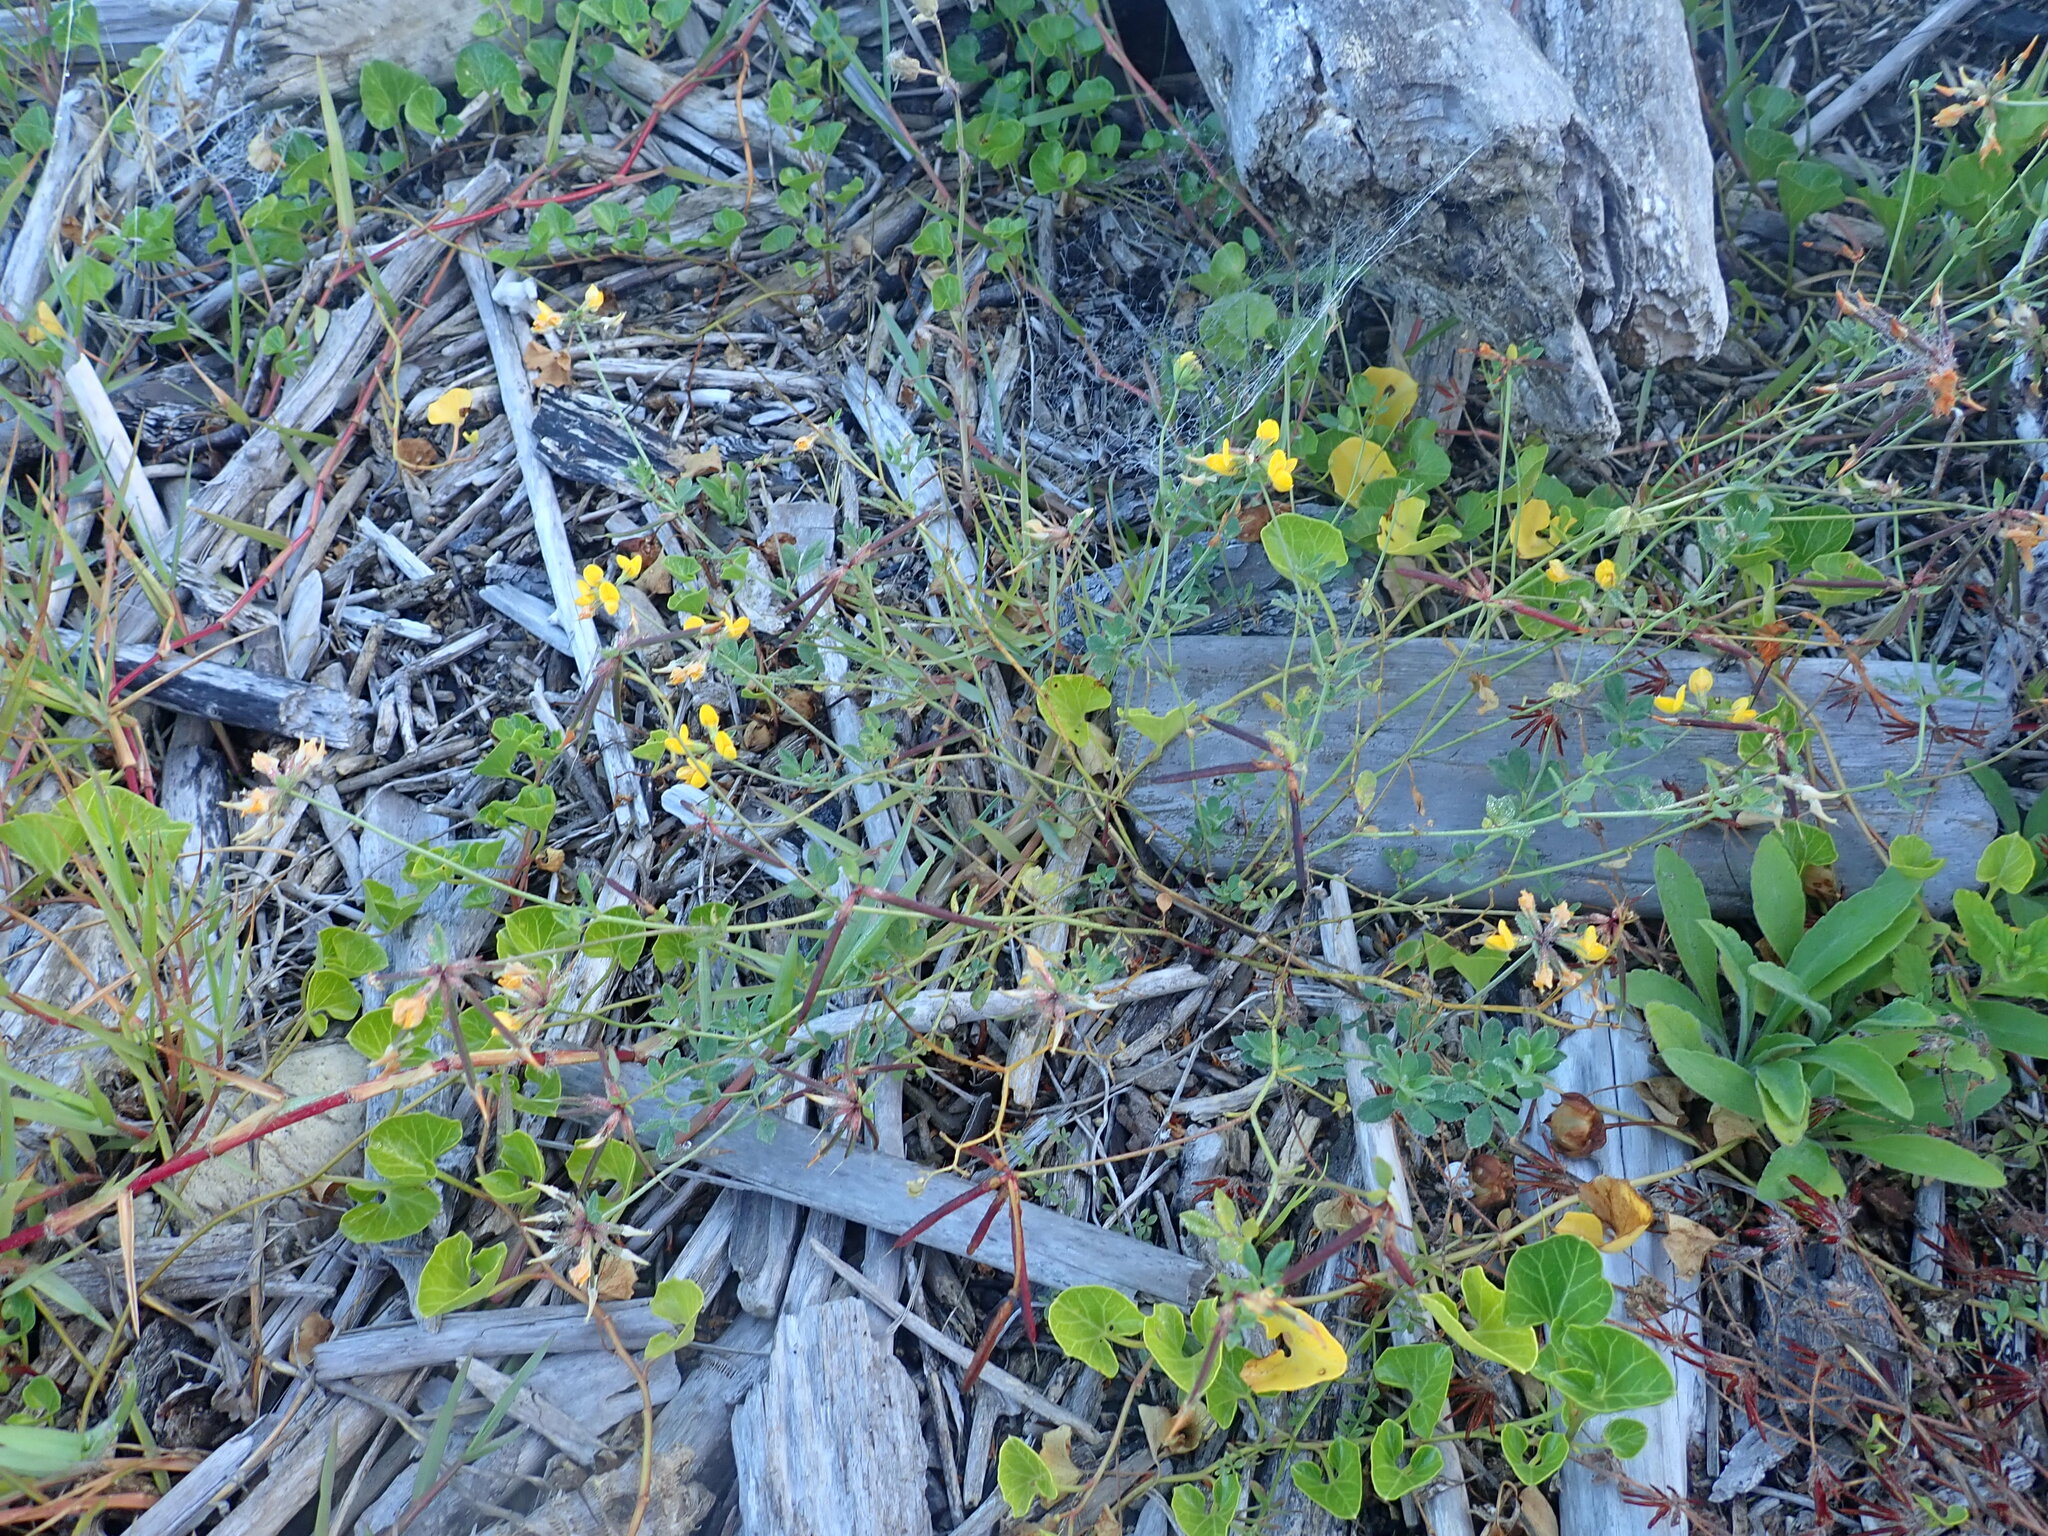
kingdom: Plantae
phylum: Tracheophyta
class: Magnoliopsida
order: Fabales
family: Fabaceae
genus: Lotus
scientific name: Lotus pedunculatus
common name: Greater birdsfoot-trefoil
